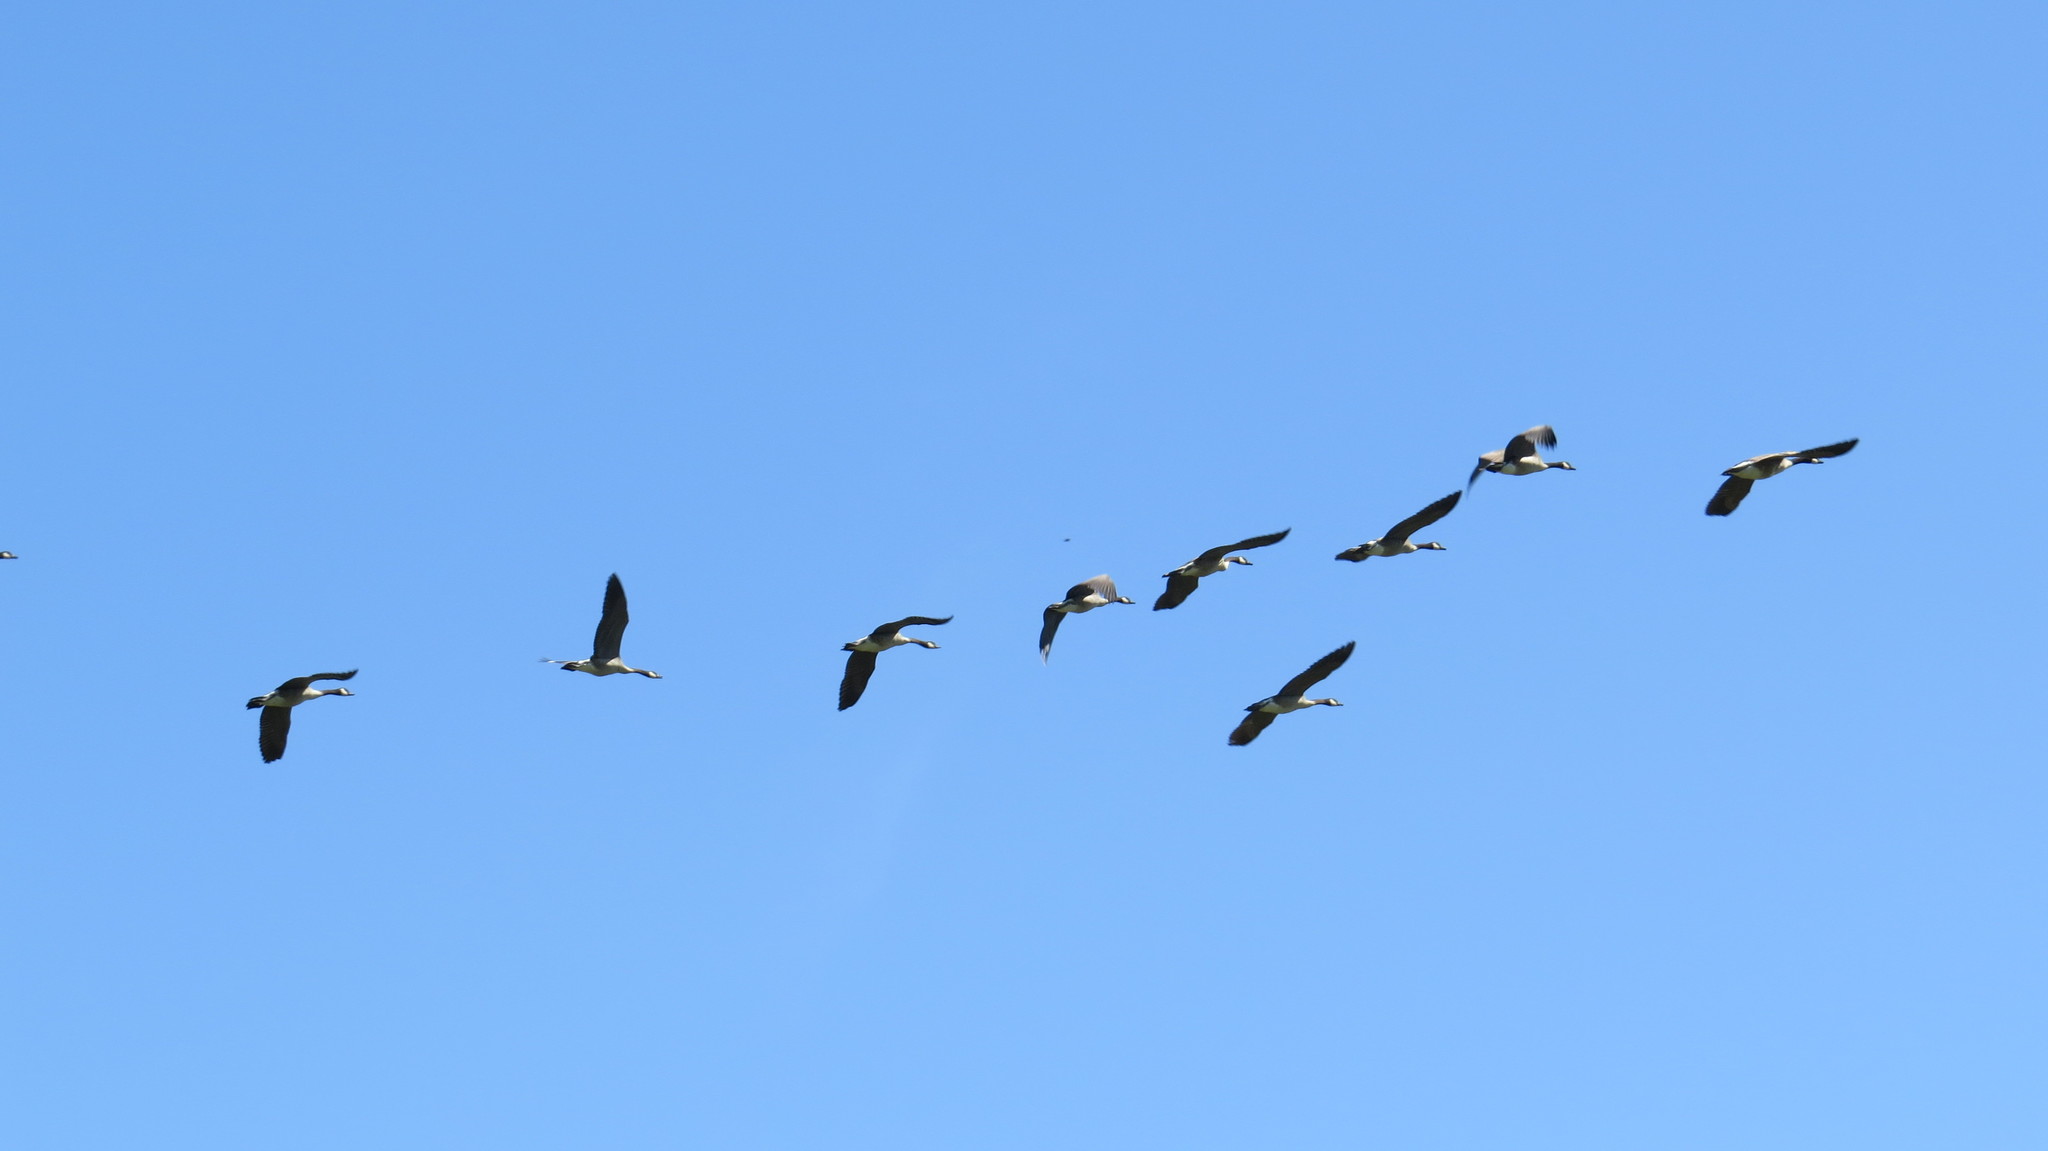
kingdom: Animalia
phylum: Chordata
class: Aves
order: Anseriformes
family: Anatidae
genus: Branta
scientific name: Branta canadensis
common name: Canada goose
